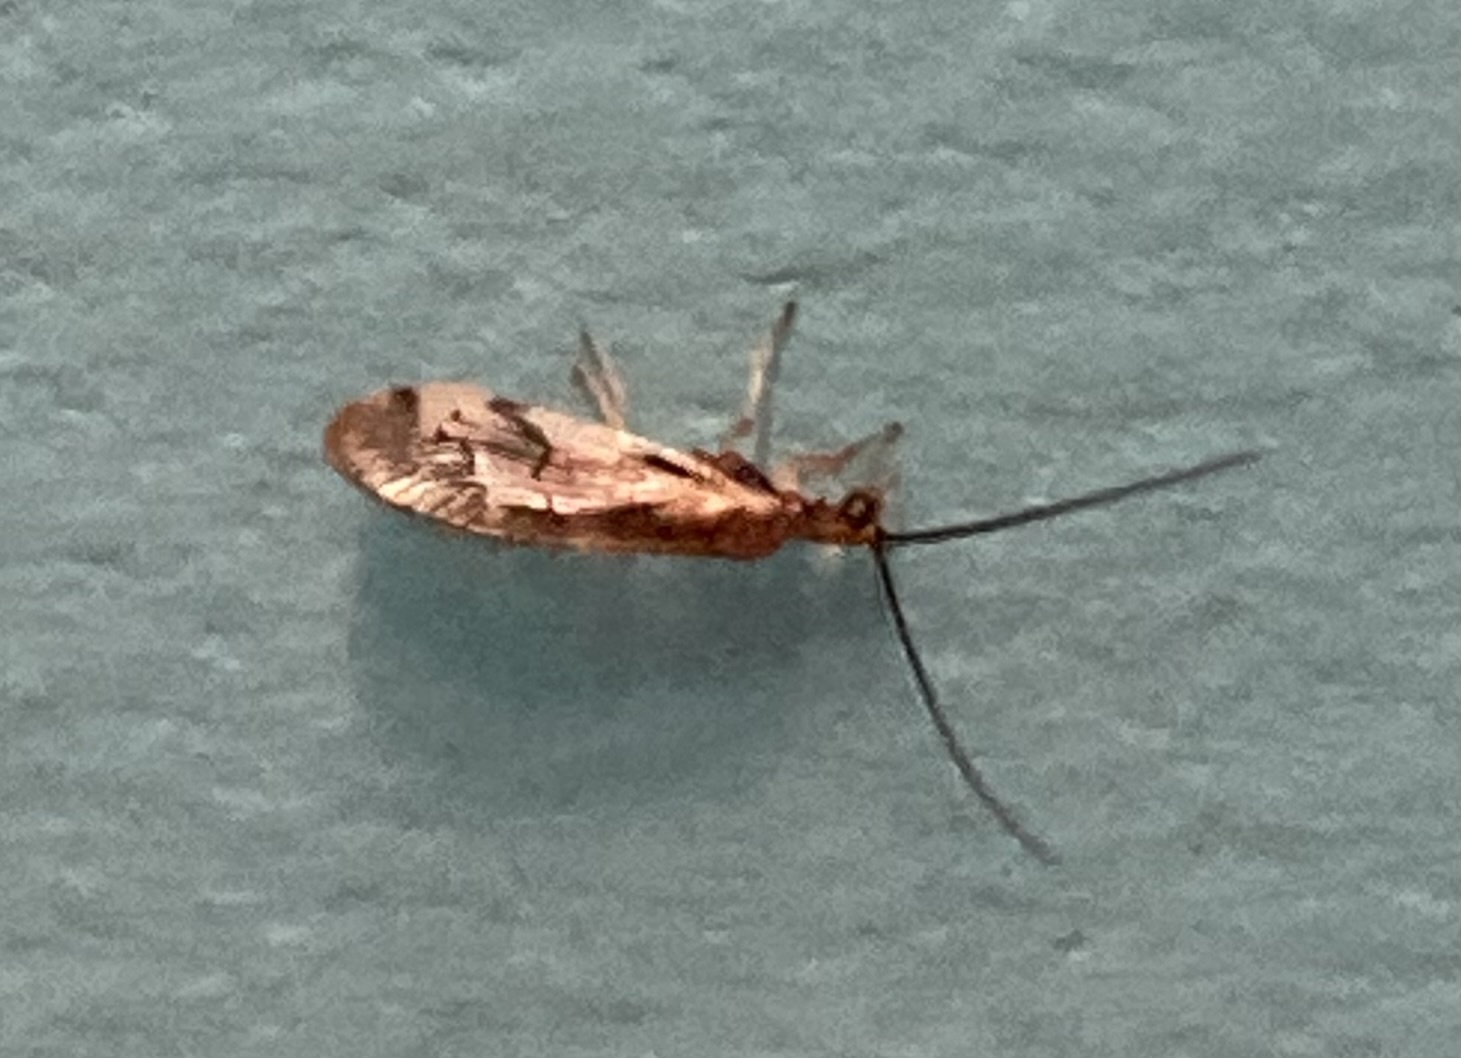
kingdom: Animalia
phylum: Arthropoda
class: Insecta
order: Neuroptera
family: Sisyridae
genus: Climacia
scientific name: Climacia areolaris
